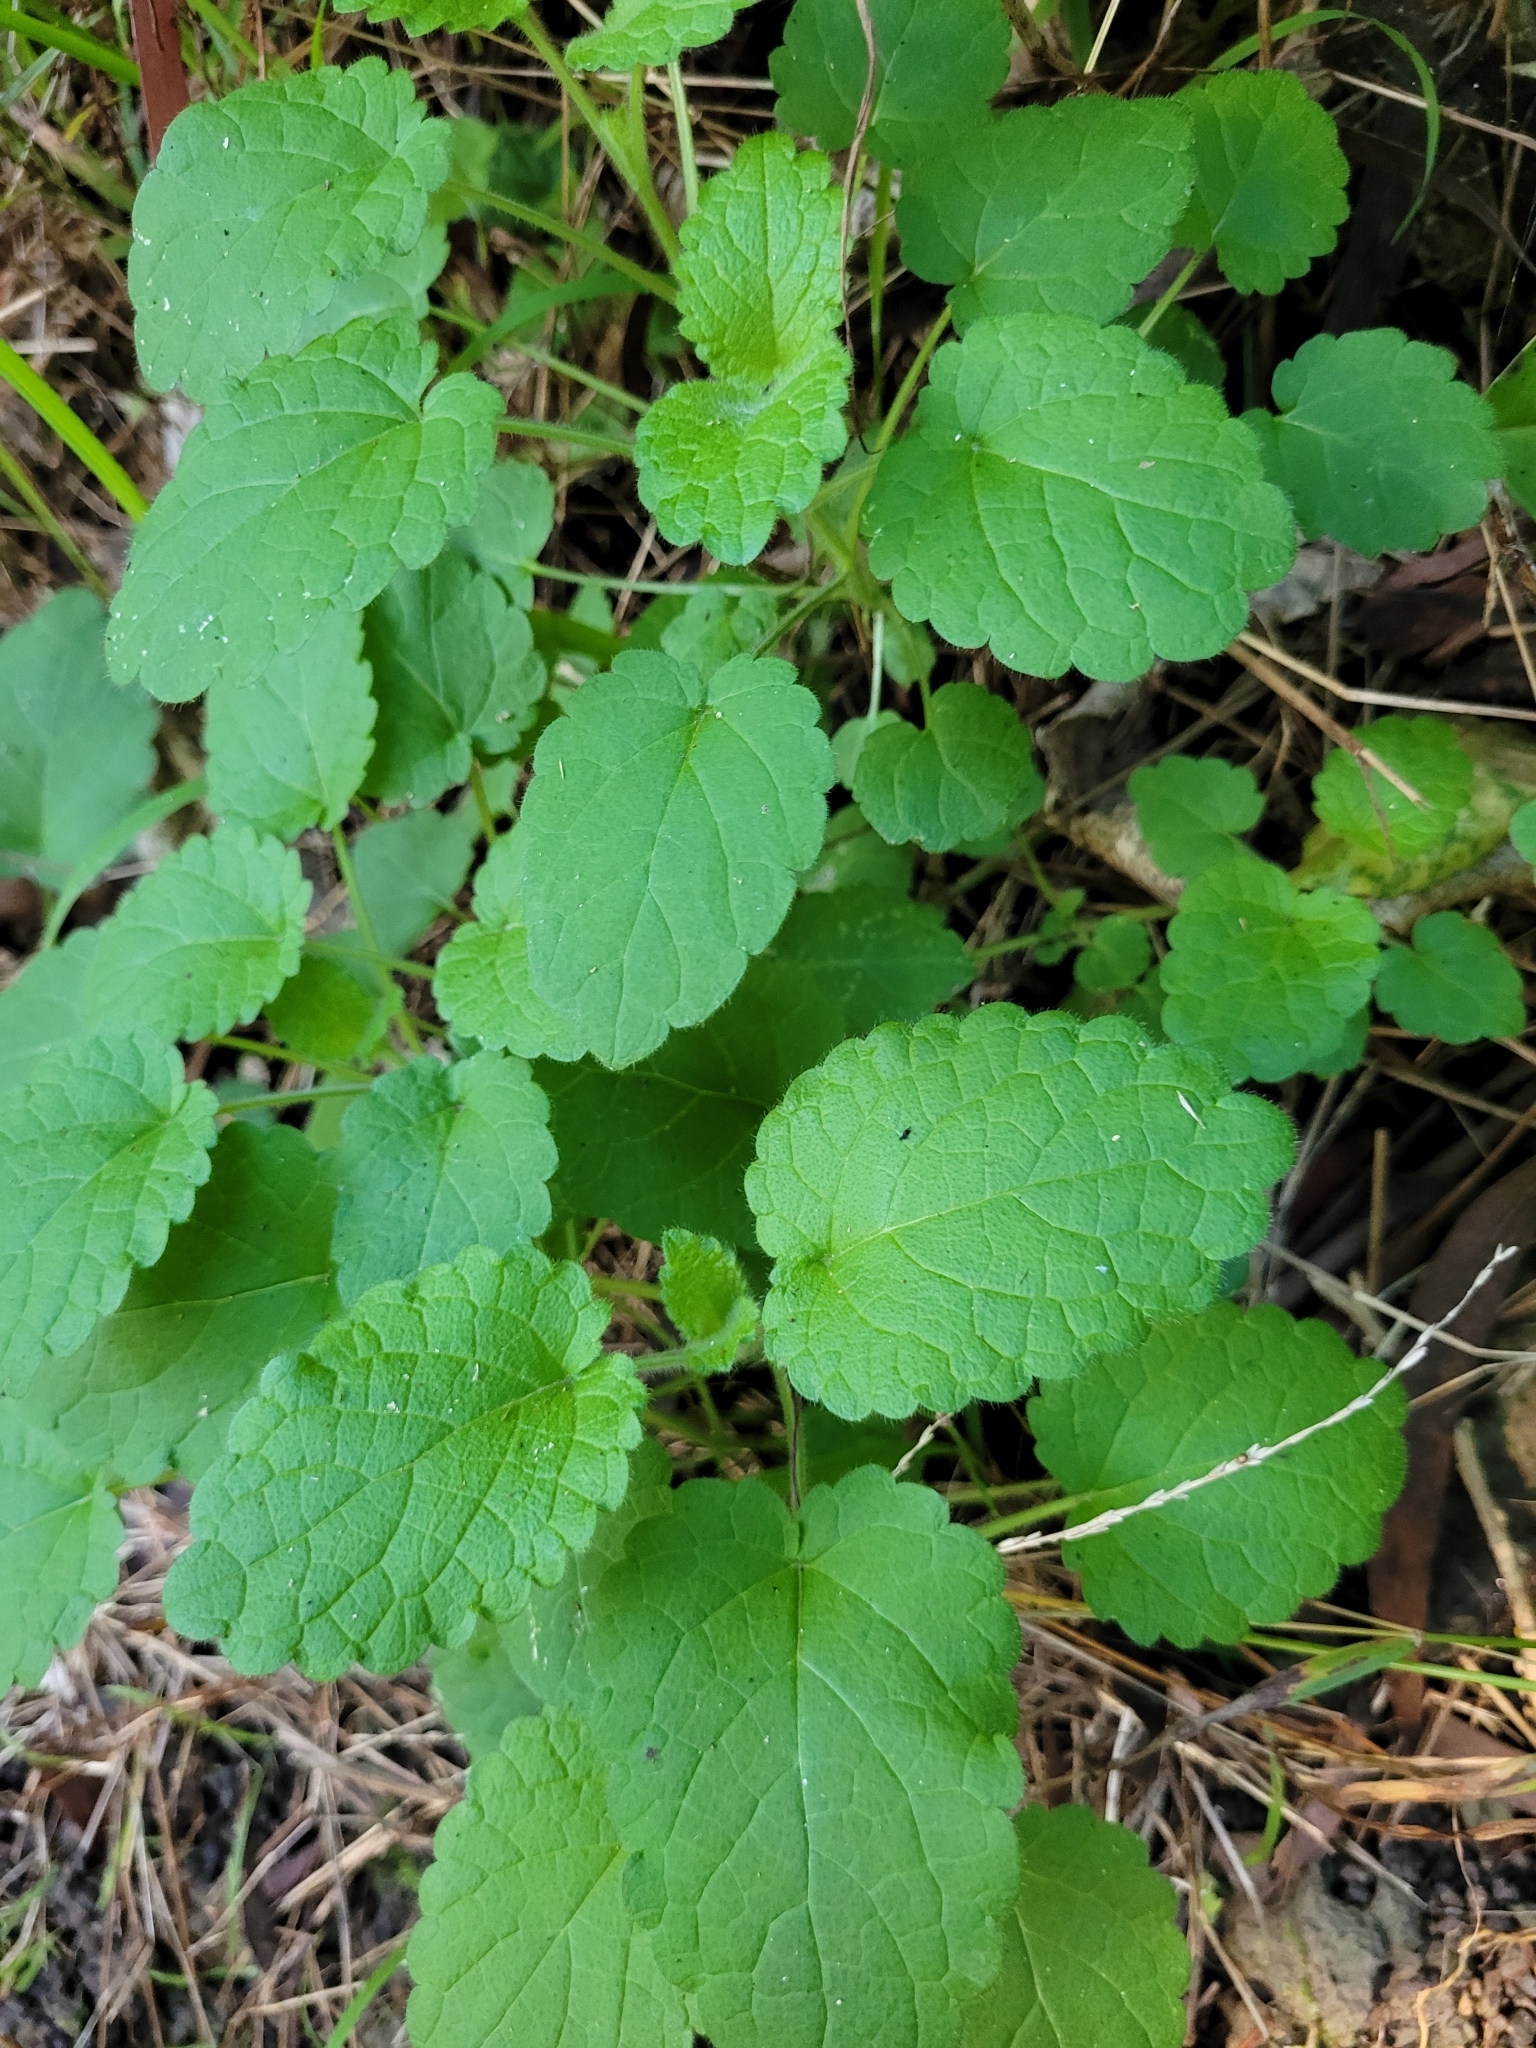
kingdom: Plantae
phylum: Tracheophyta
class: Magnoliopsida
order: Lamiales
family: Lamiaceae
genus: Stachys
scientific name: Stachys sylvatica
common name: Hedge woundwort
